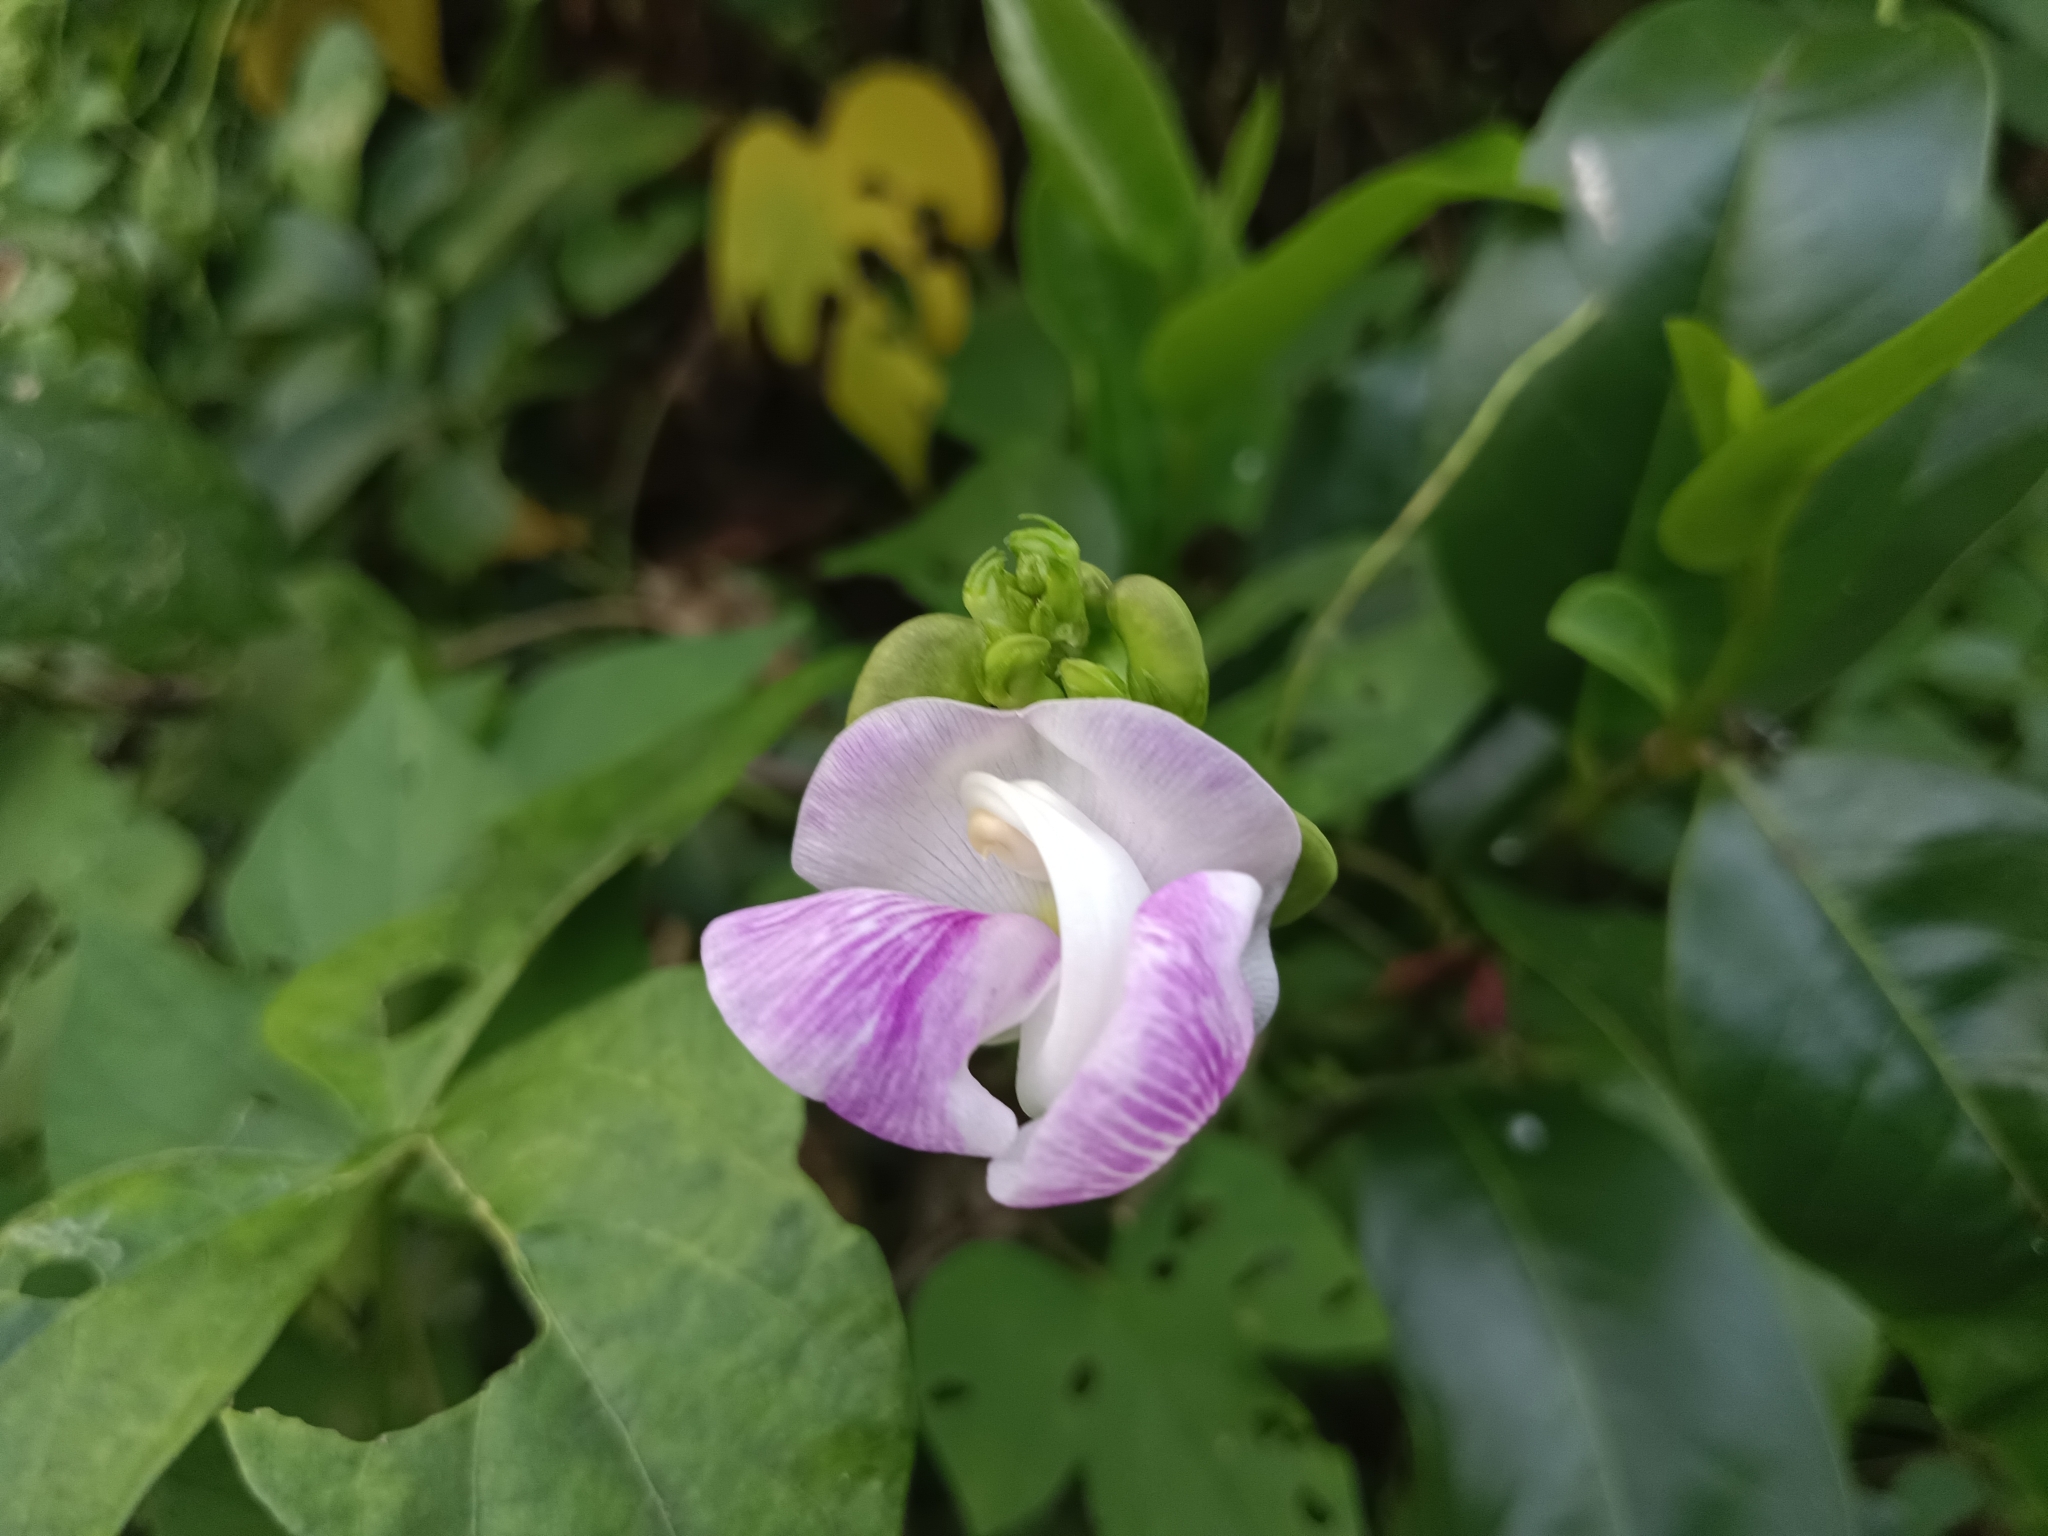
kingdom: Plantae
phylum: Tracheophyta
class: Magnoliopsida
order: Fabales
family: Fabaceae
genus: Vigna
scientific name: Vigna vexillata
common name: Zombi pea
